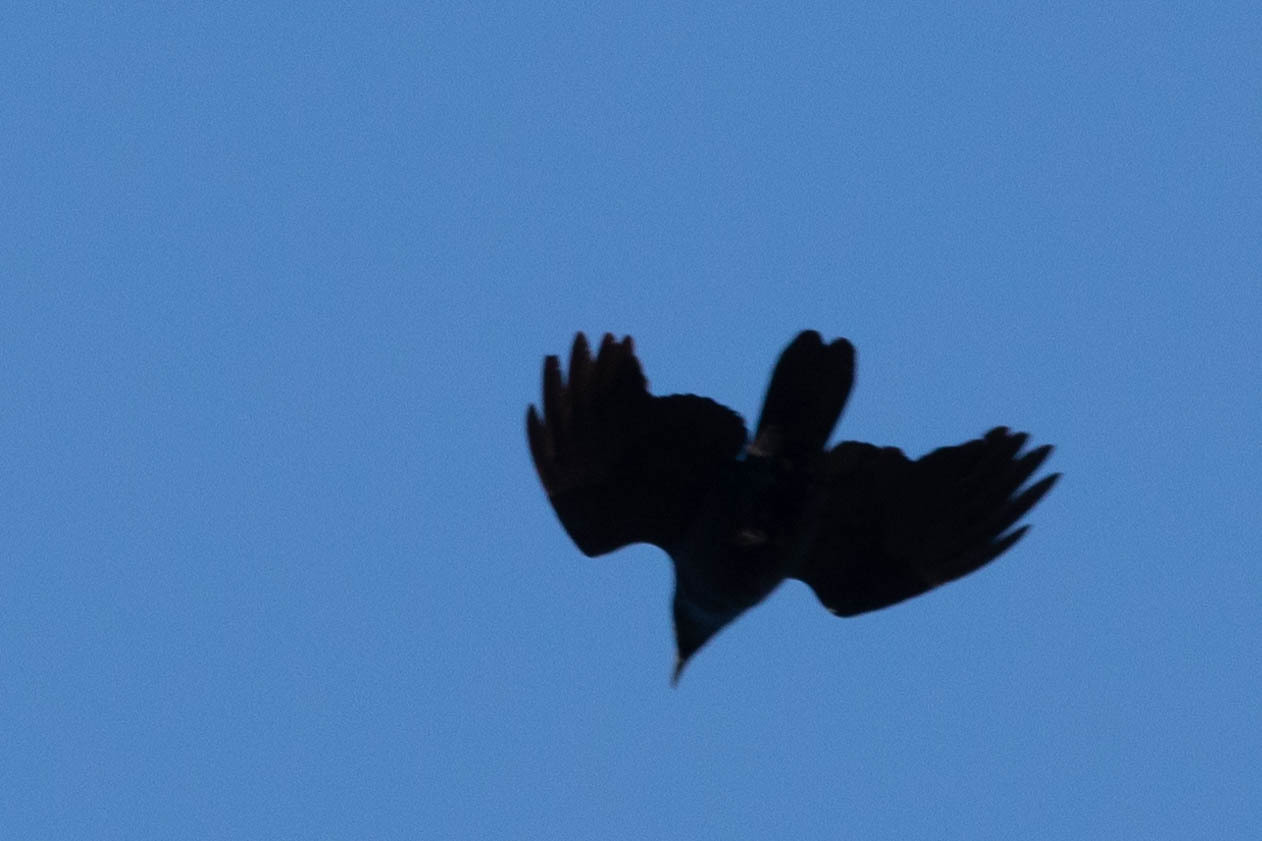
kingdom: Animalia
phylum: Chordata
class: Aves
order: Passeriformes
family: Corvidae
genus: Corvus
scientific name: Corvus brachyrhynchos
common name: American crow
